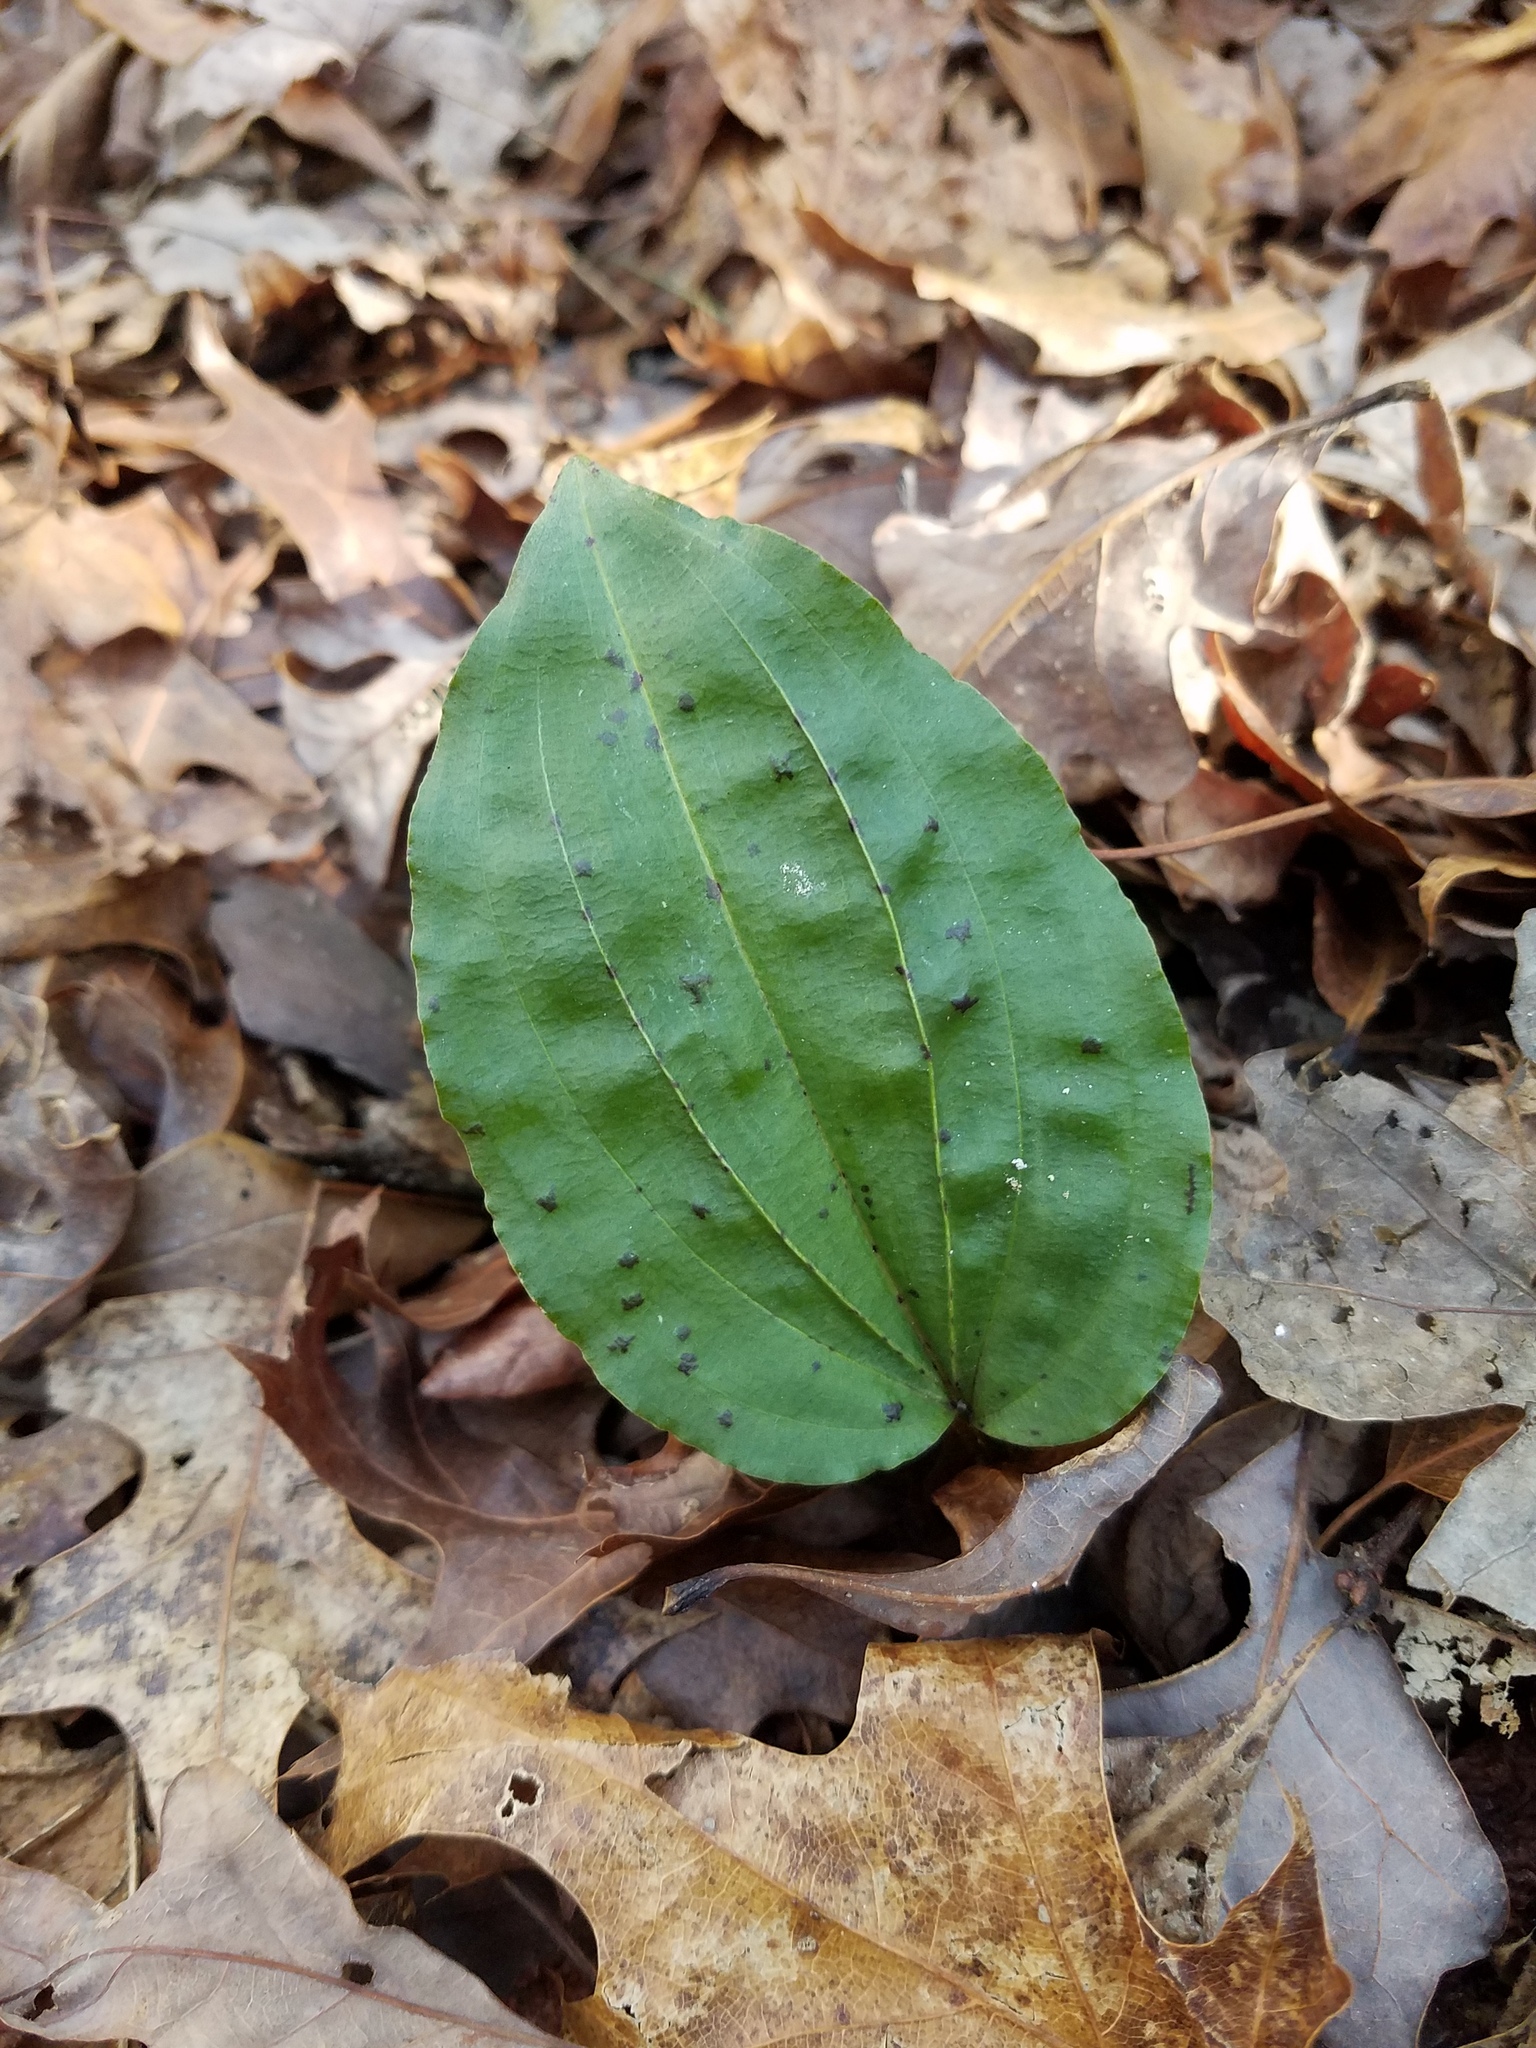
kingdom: Plantae
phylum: Tracheophyta
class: Liliopsida
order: Asparagales
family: Orchidaceae
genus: Tipularia
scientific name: Tipularia discolor
